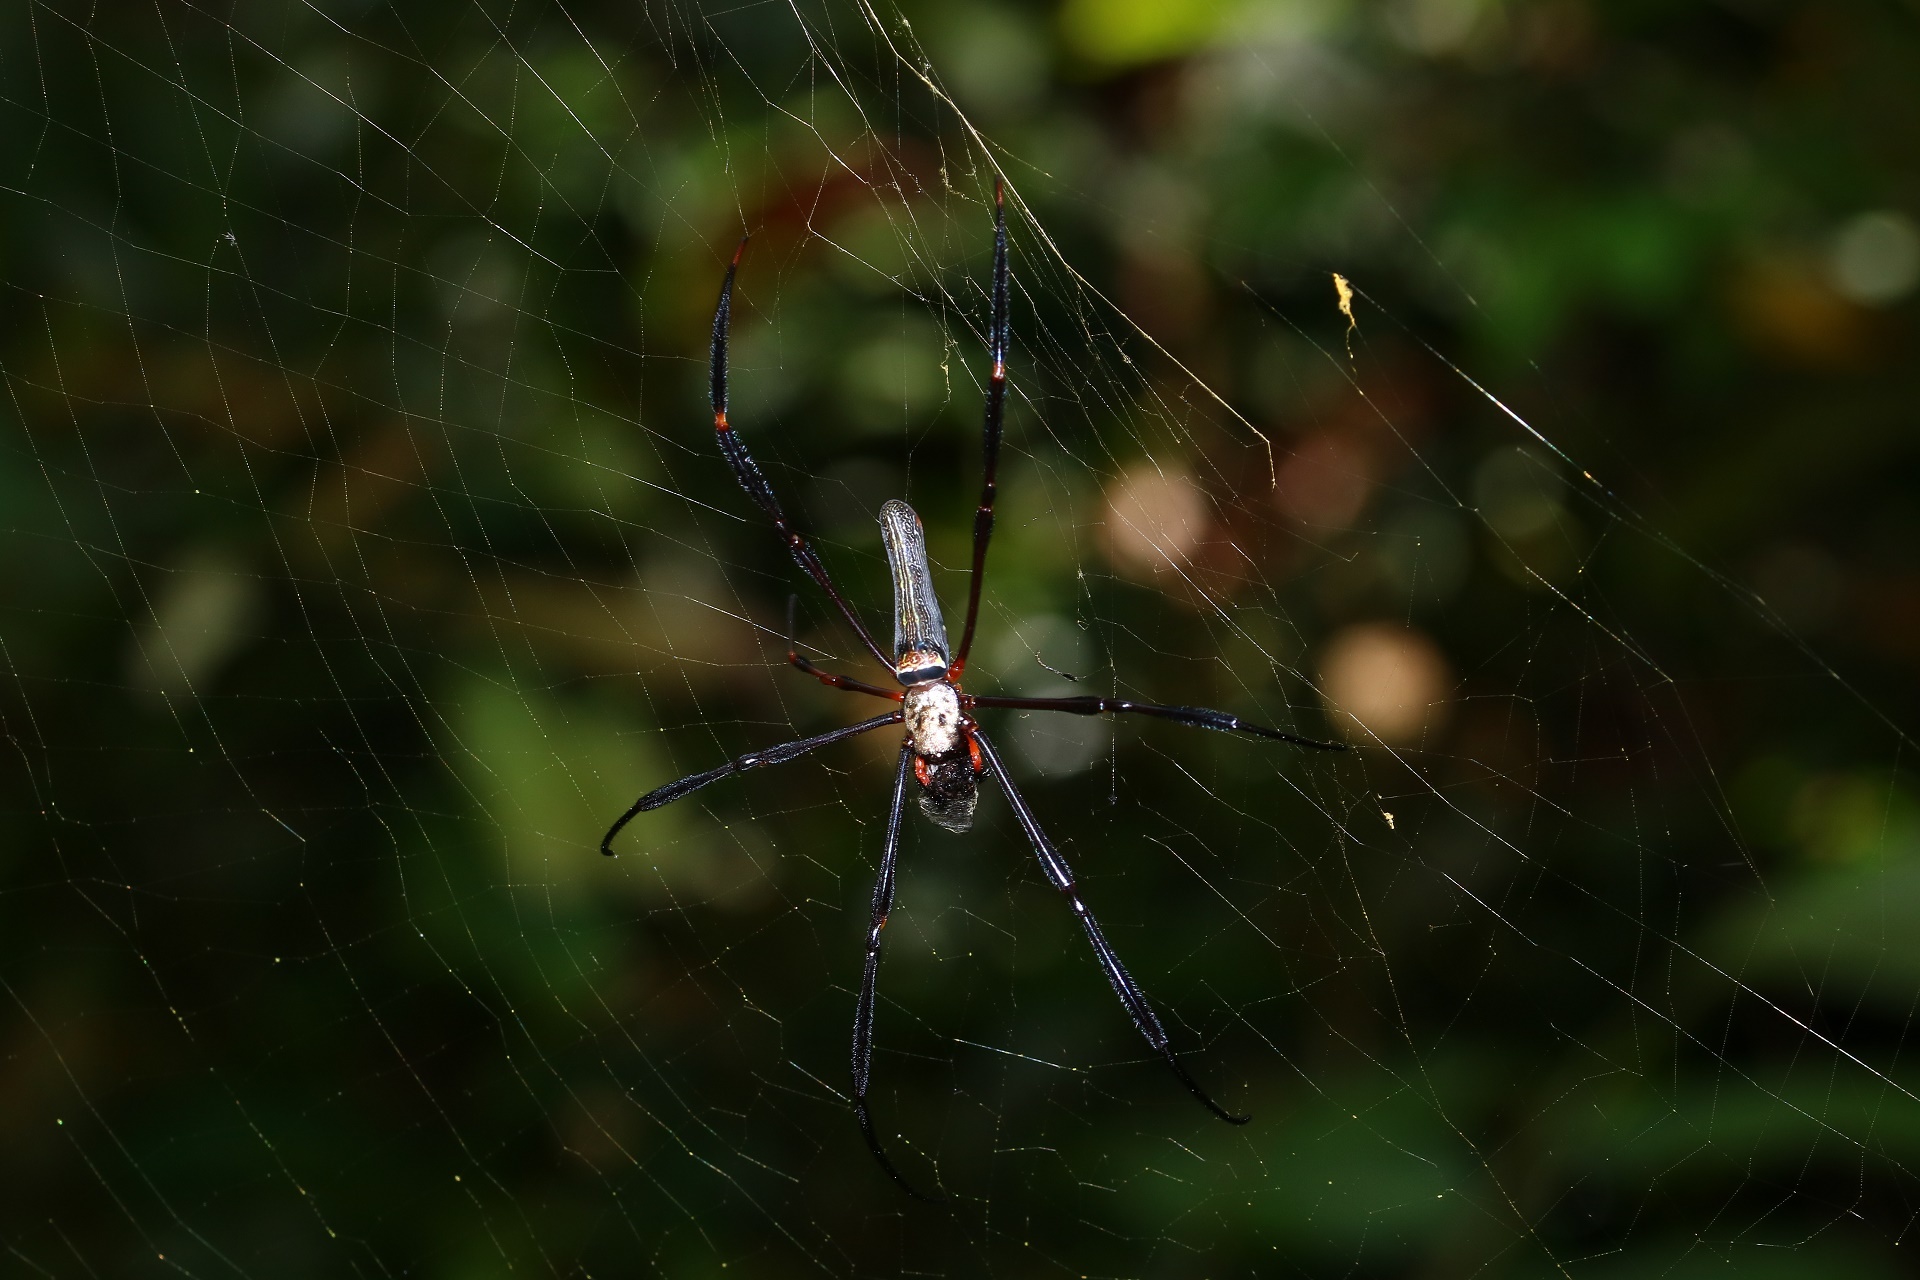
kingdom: Animalia
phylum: Arthropoda
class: Arachnida
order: Araneae
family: Araneidae
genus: Nephila
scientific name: Nephila pilipes
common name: Giant golden orb weaver
